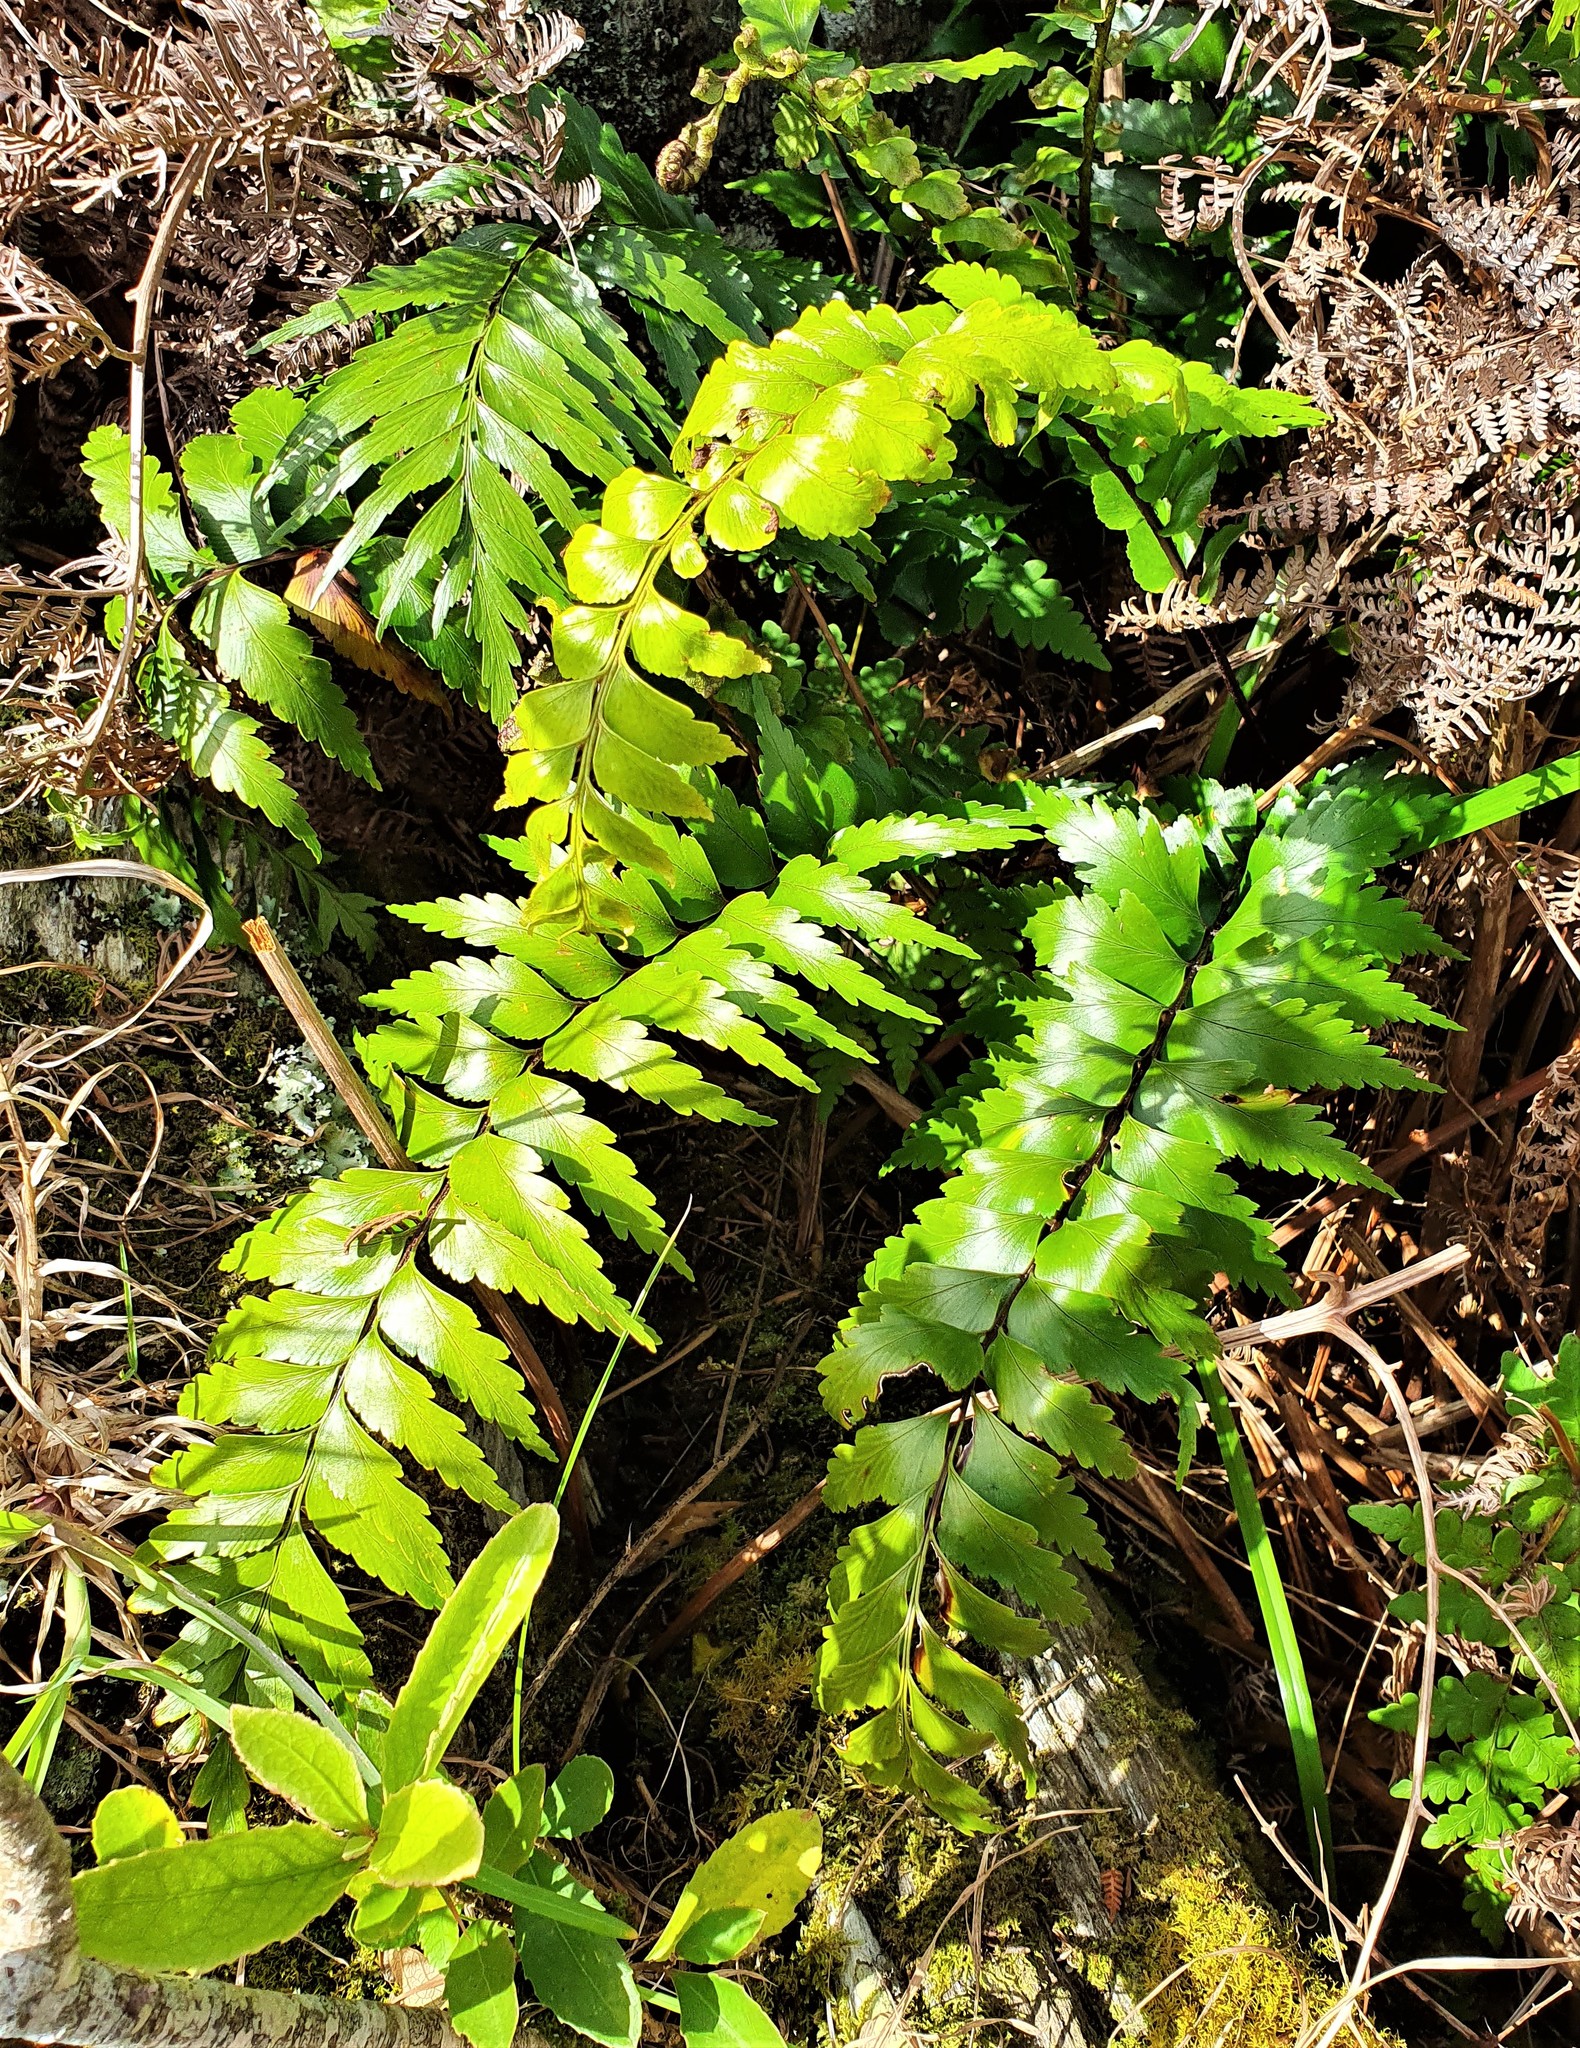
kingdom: Plantae
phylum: Tracheophyta
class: Polypodiopsida
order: Polypodiales
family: Aspleniaceae
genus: Asplenium
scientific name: Asplenium polyodon
